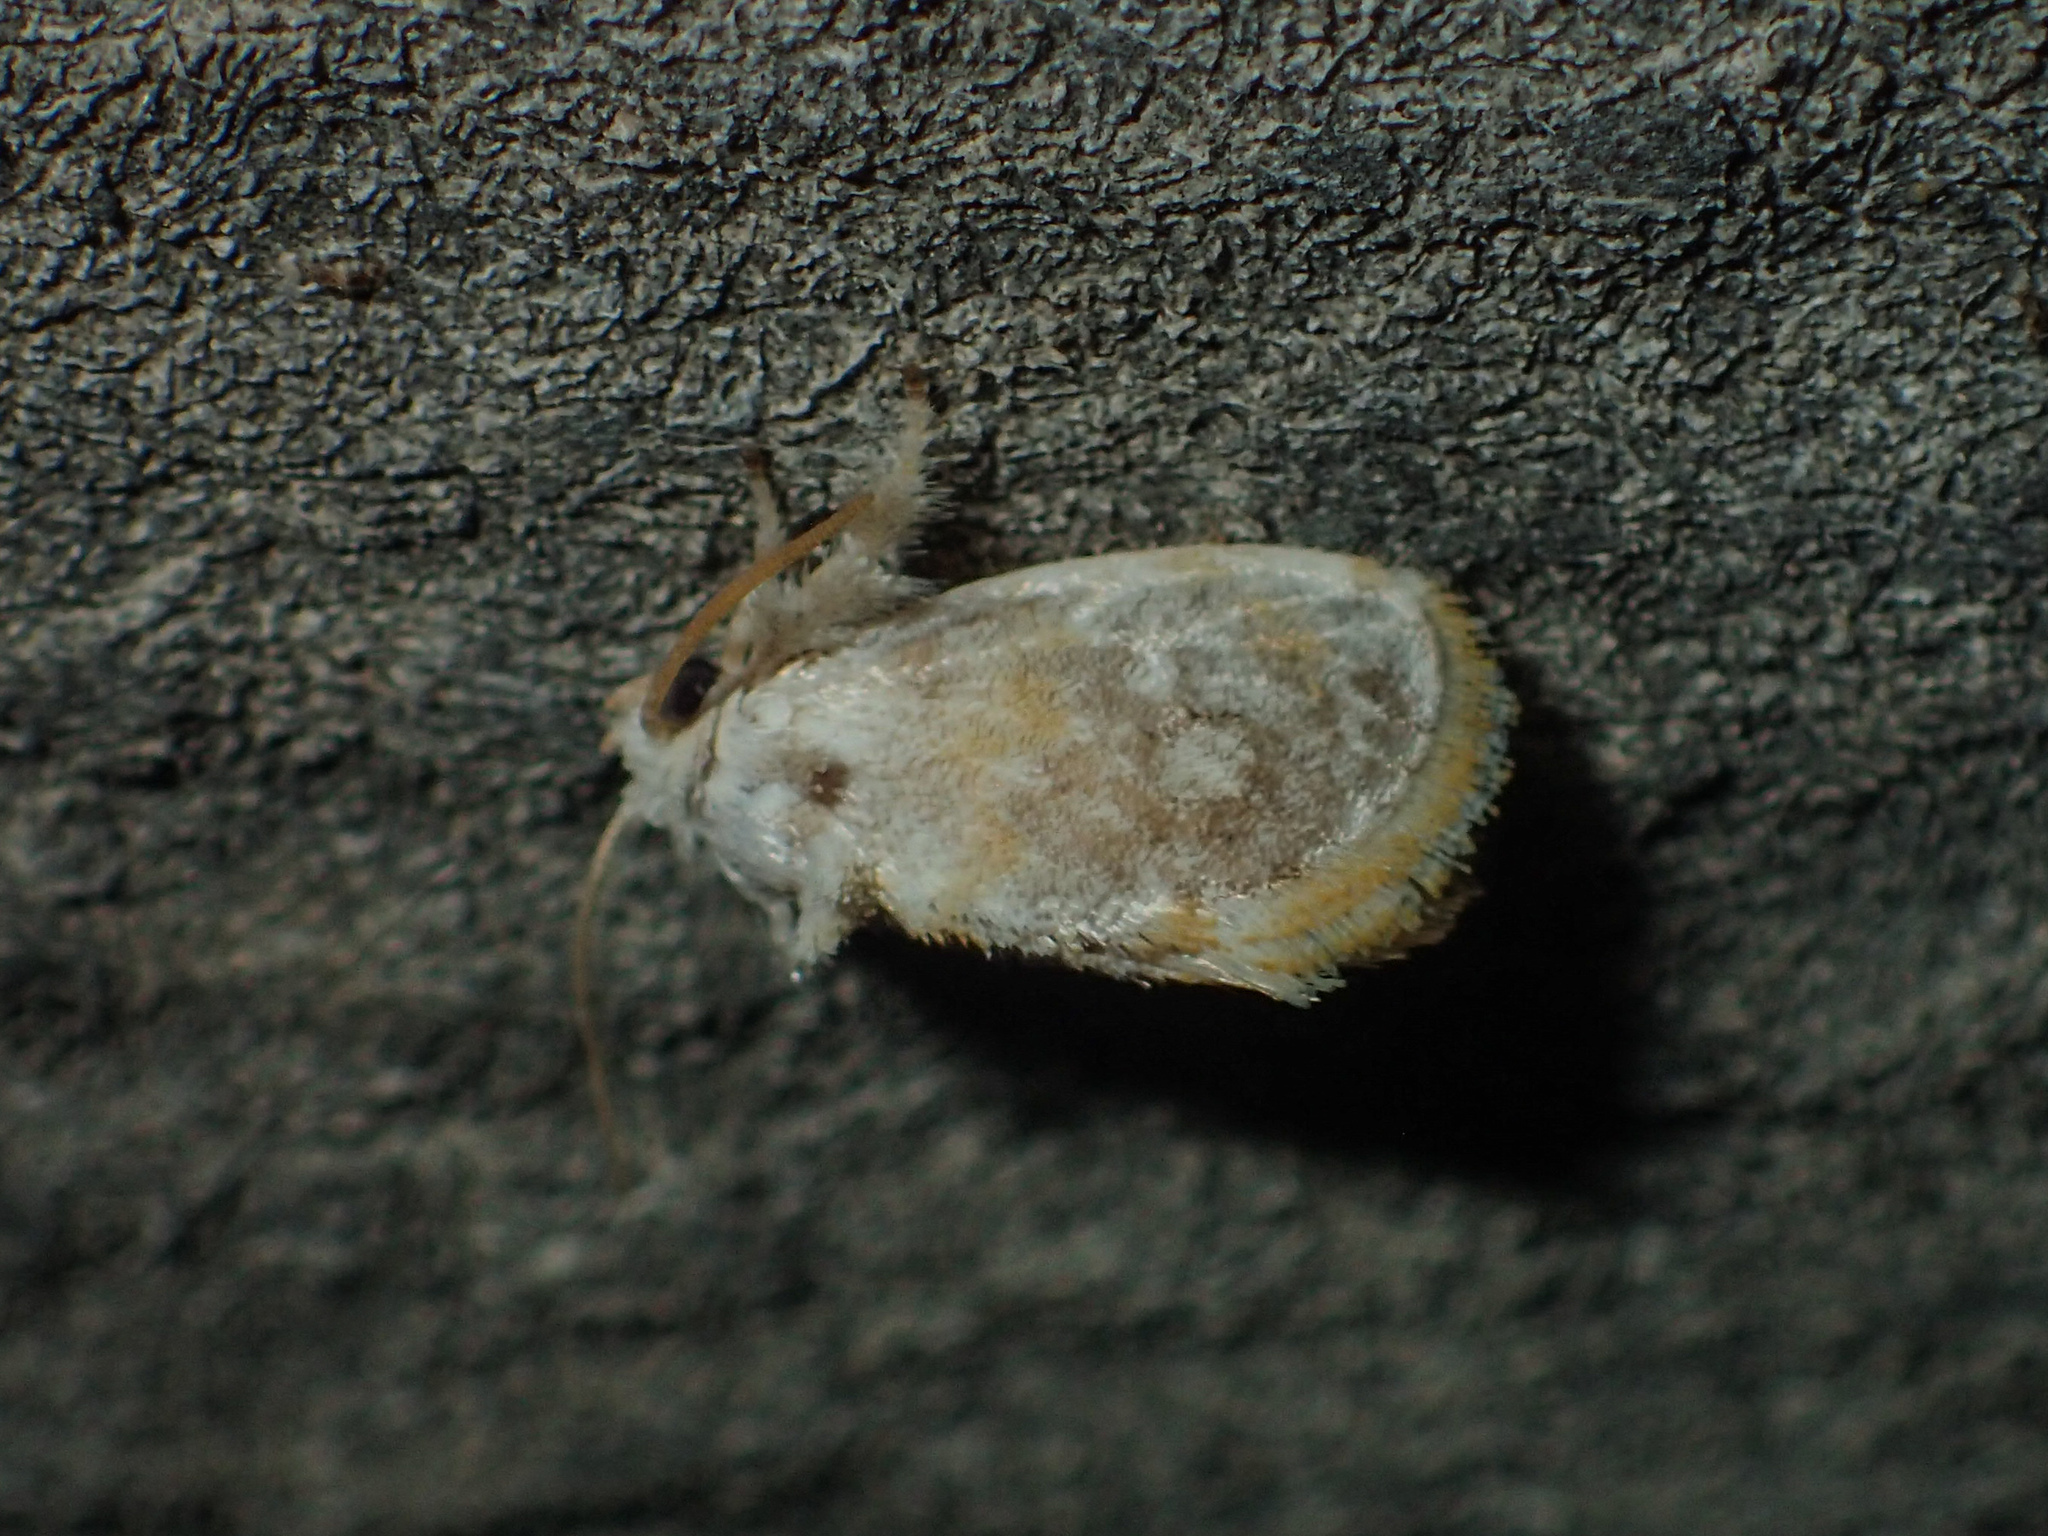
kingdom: Animalia
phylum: Arthropoda
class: Insecta
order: Lepidoptera
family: Limacodidae
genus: Kitanola
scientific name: Kitanola brachygnatha
